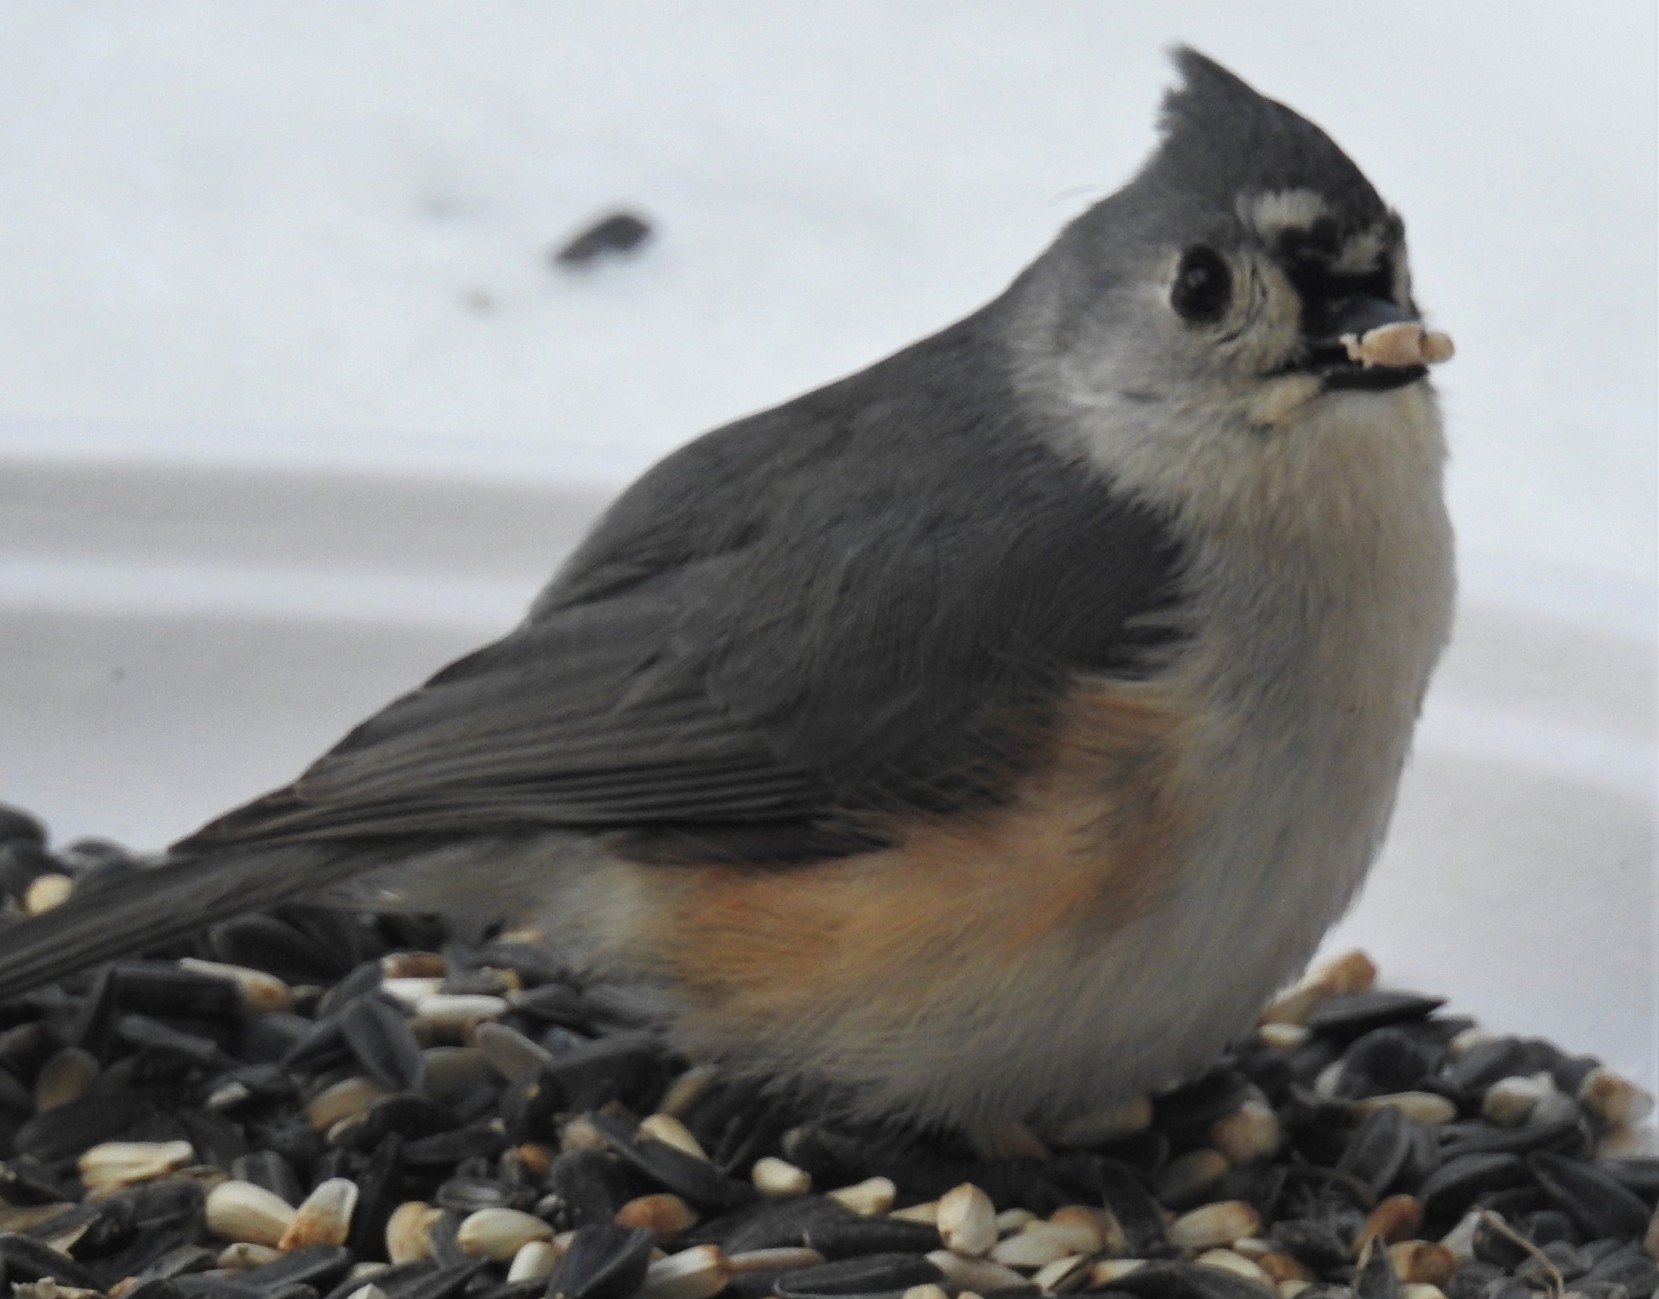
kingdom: Animalia
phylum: Chordata
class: Aves
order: Passeriformes
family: Paridae
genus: Baeolophus
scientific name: Baeolophus bicolor
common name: Tufted titmouse
